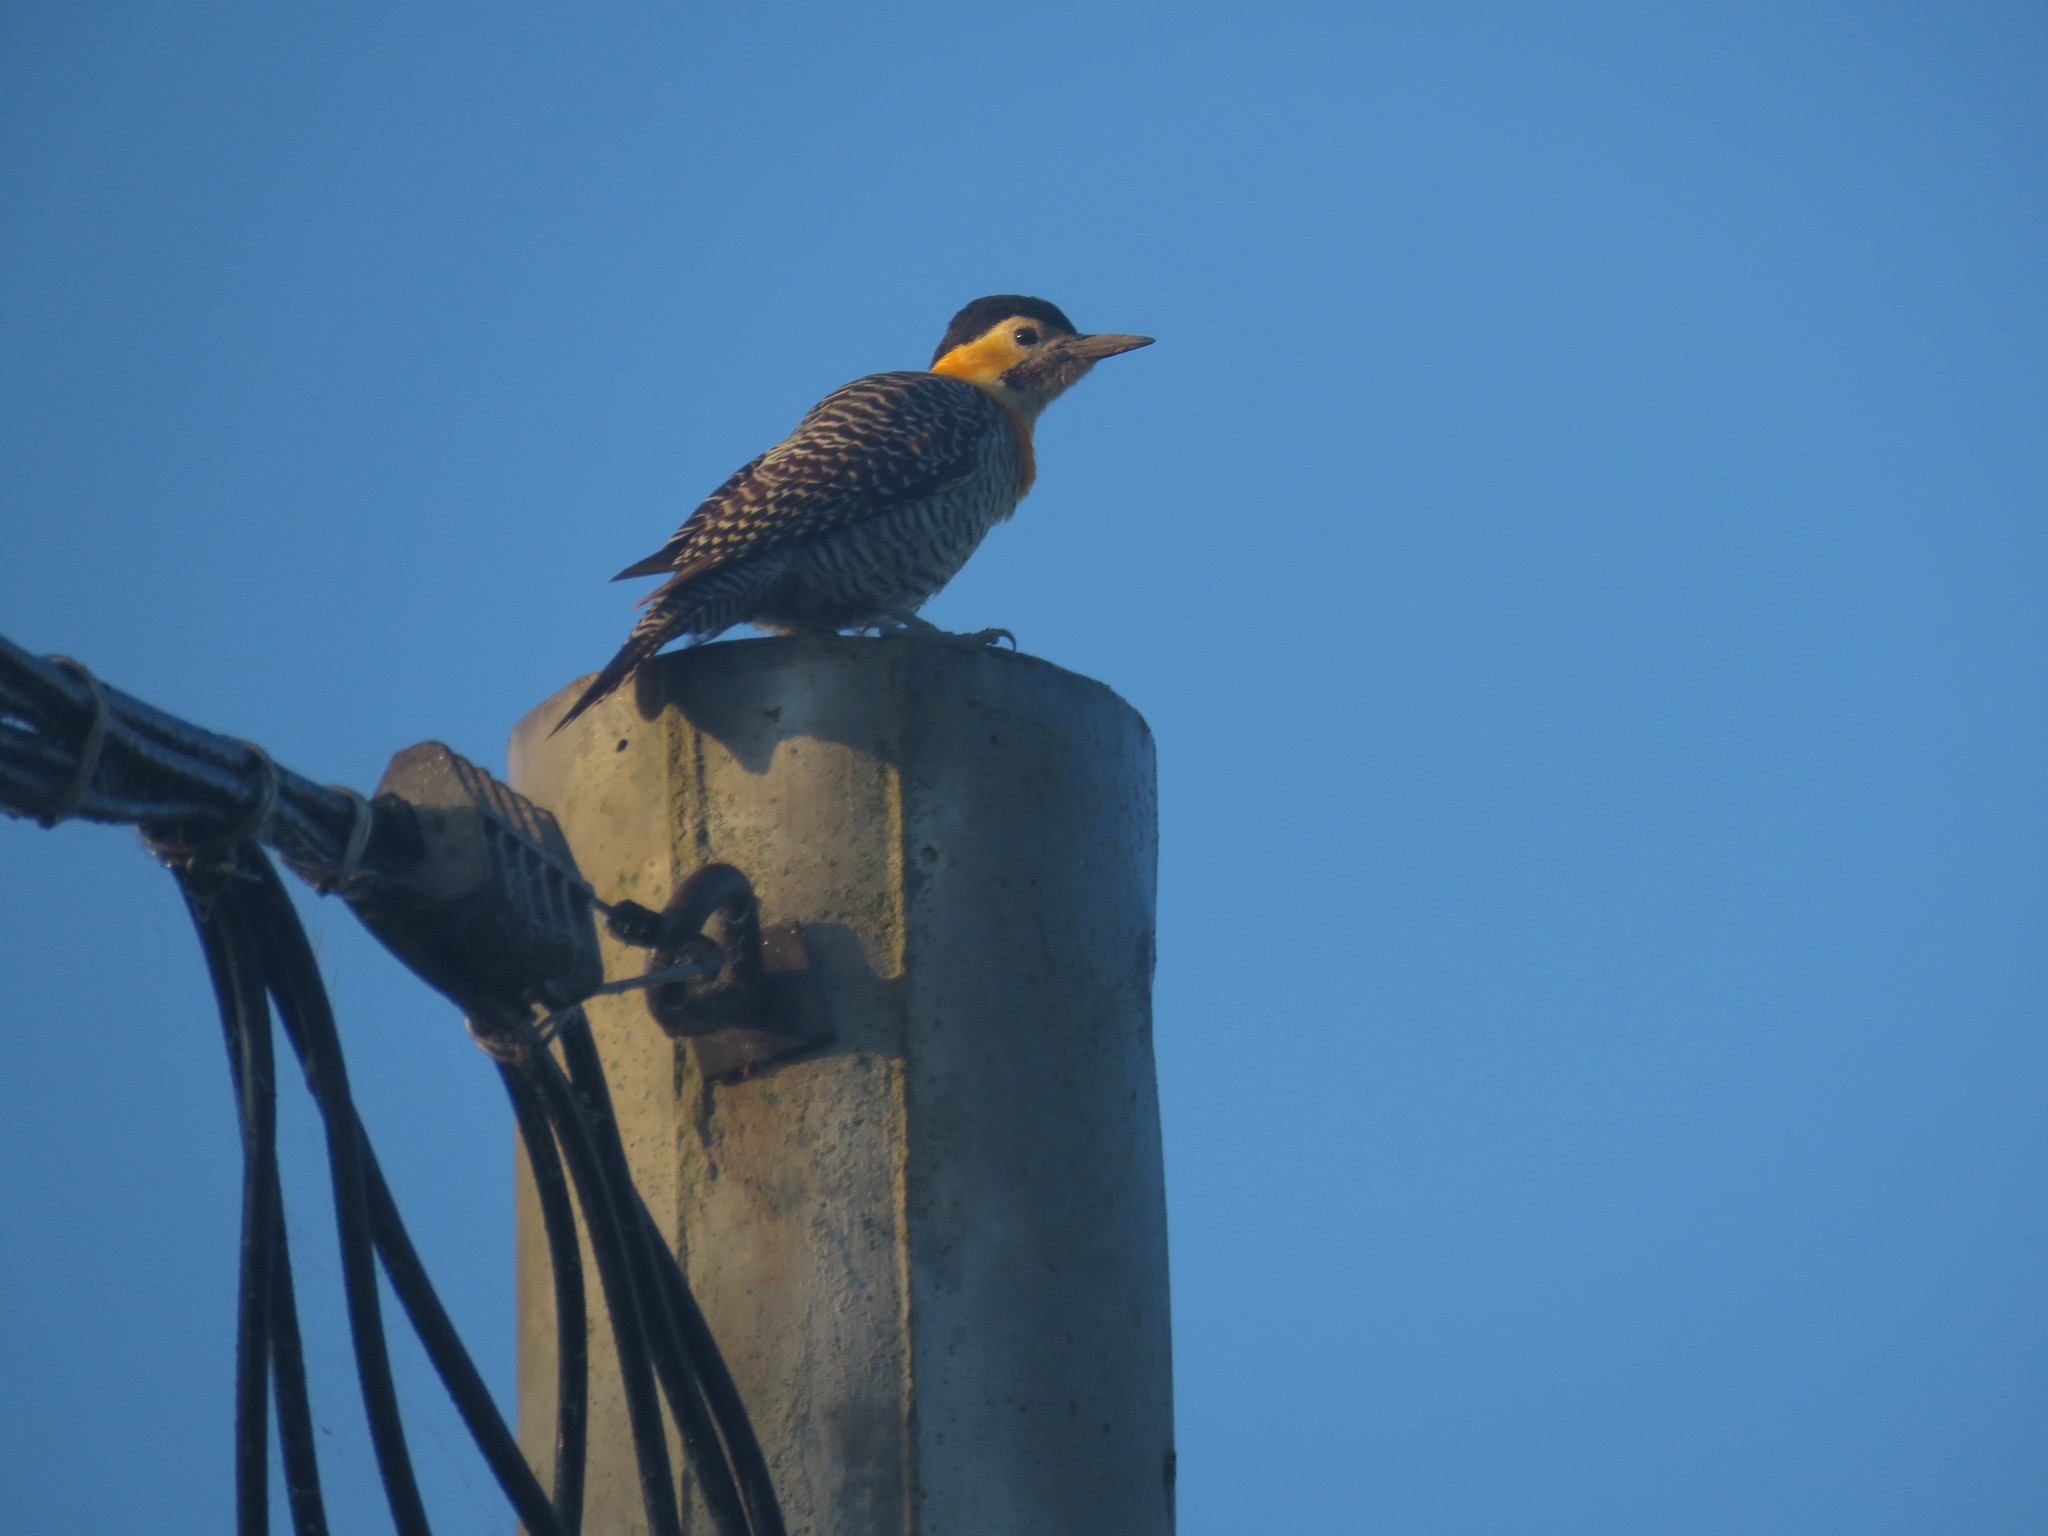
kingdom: Animalia
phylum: Chordata
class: Aves
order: Piciformes
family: Picidae
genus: Colaptes
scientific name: Colaptes campestris
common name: Campo flicker
